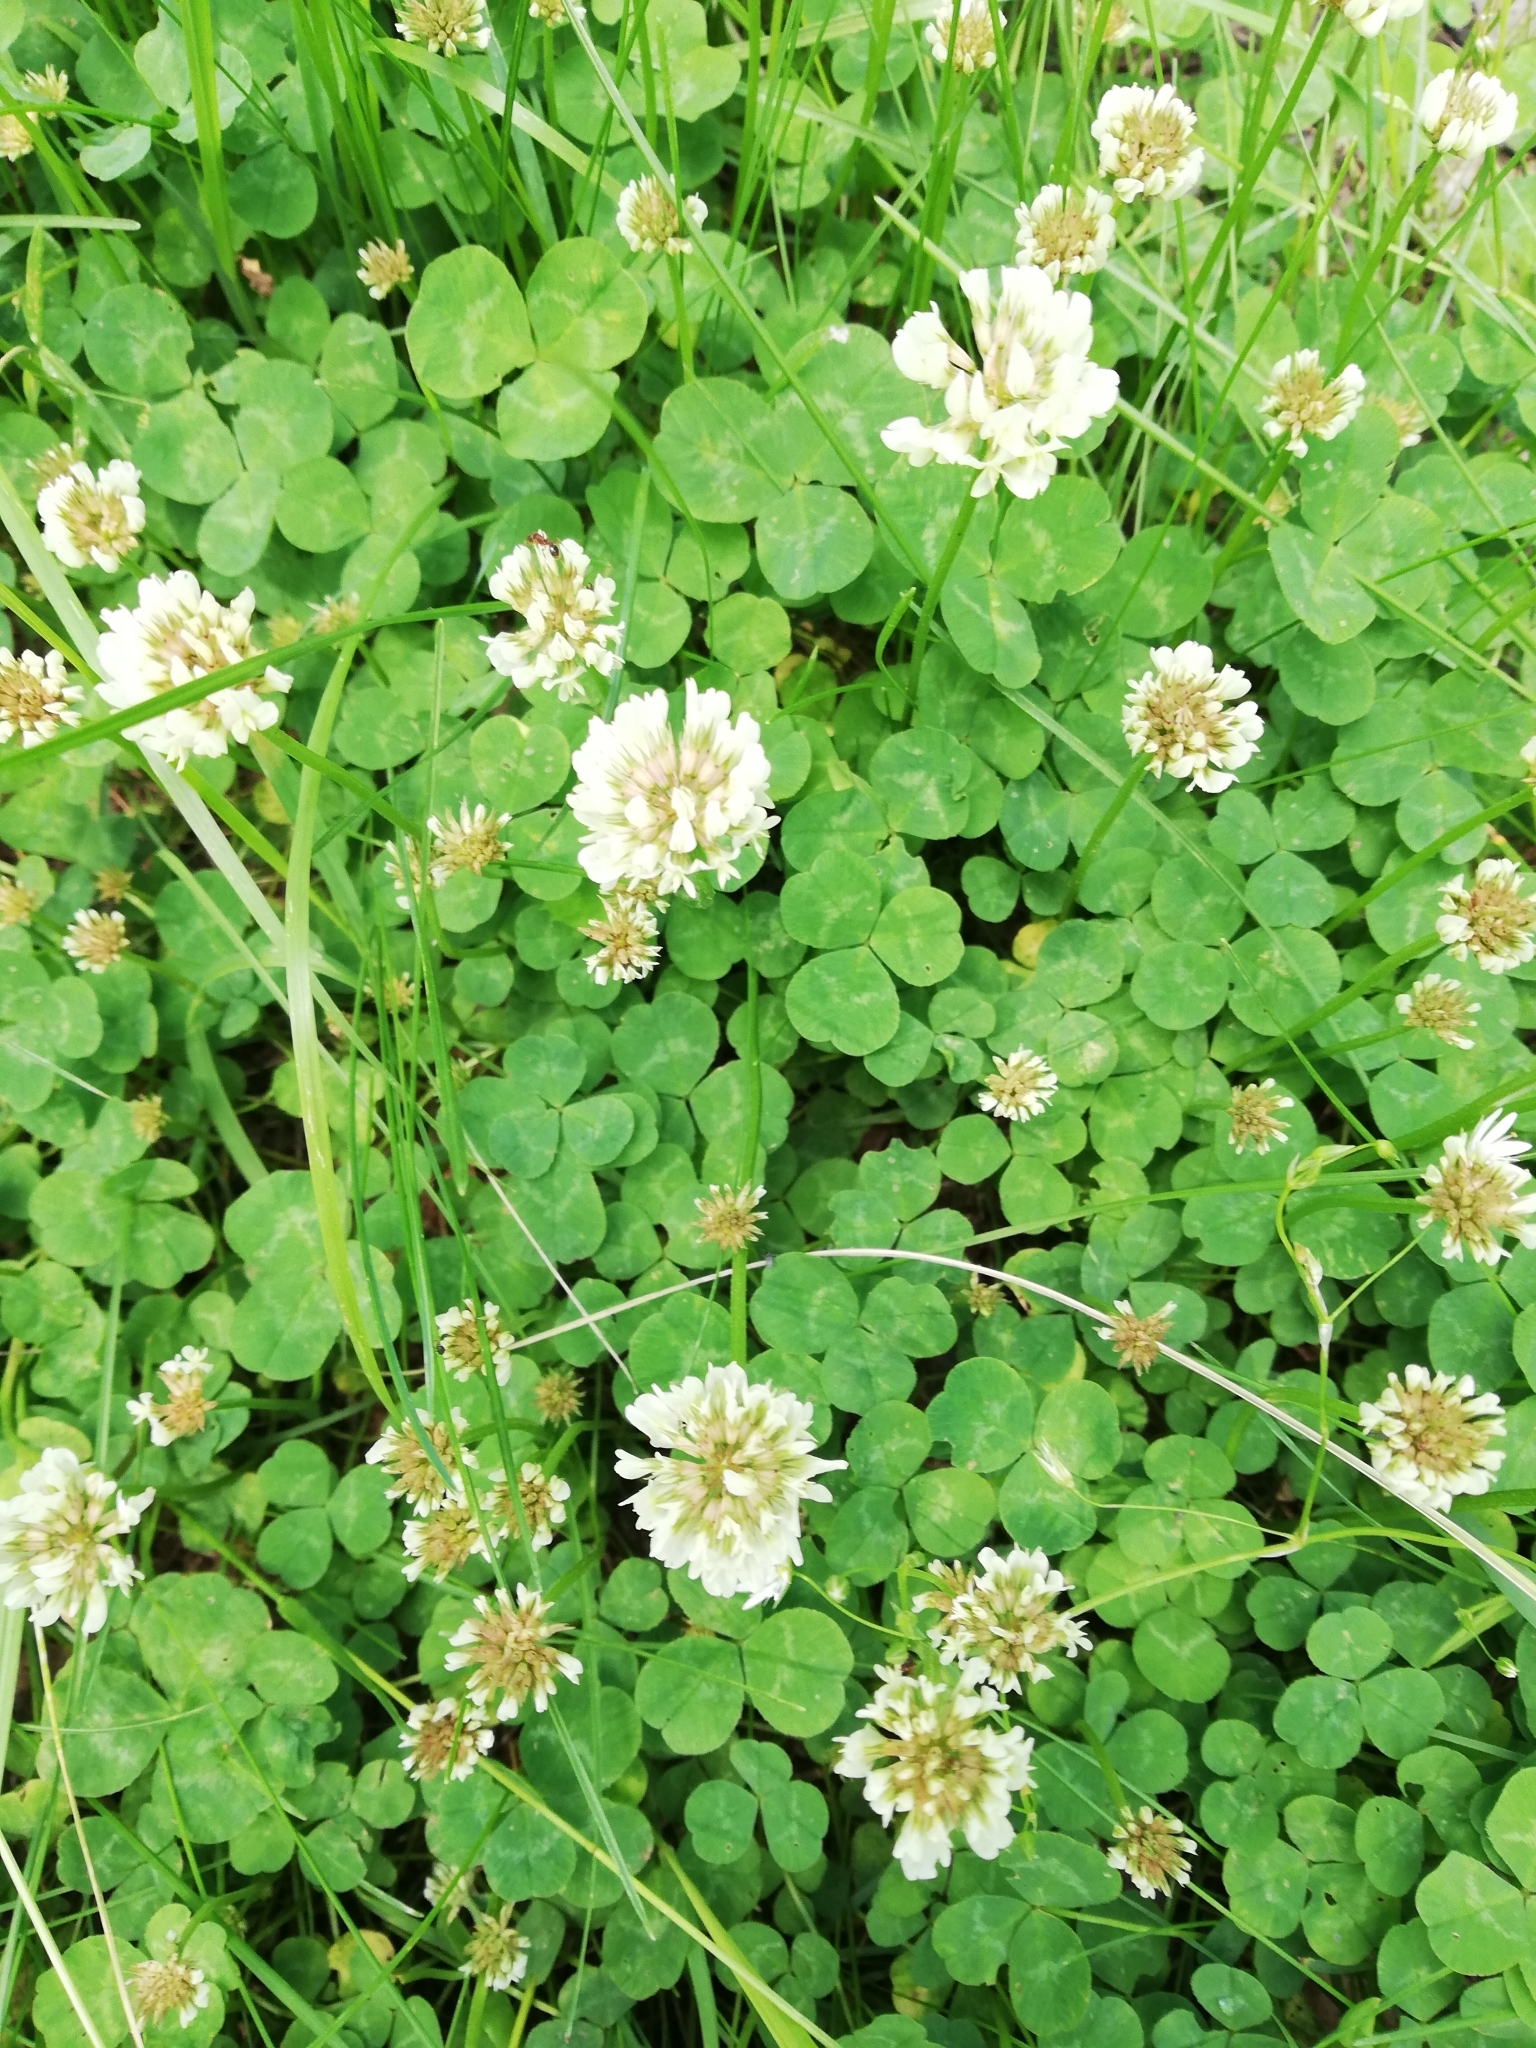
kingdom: Plantae
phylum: Tracheophyta
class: Magnoliopsida
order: Fabales
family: Fabaceae
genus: Trifolium
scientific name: Trifolium repens
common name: White clover
